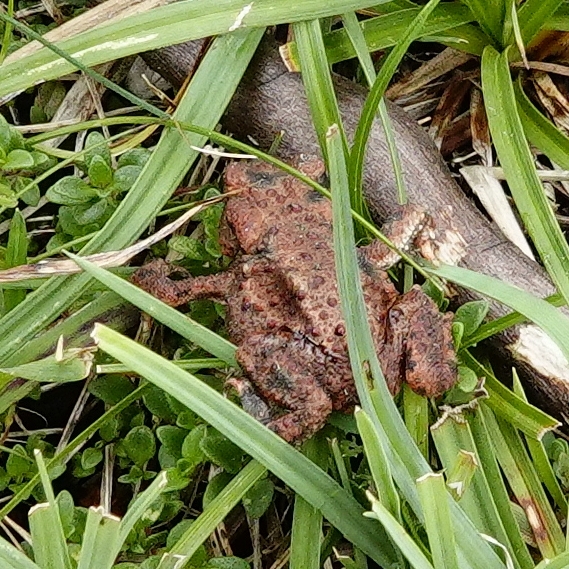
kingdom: Animalia
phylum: Chordata
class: Amphibia
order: Anura
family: Bufonidae
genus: Bufo
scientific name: Bufo bufo
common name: Common toad
